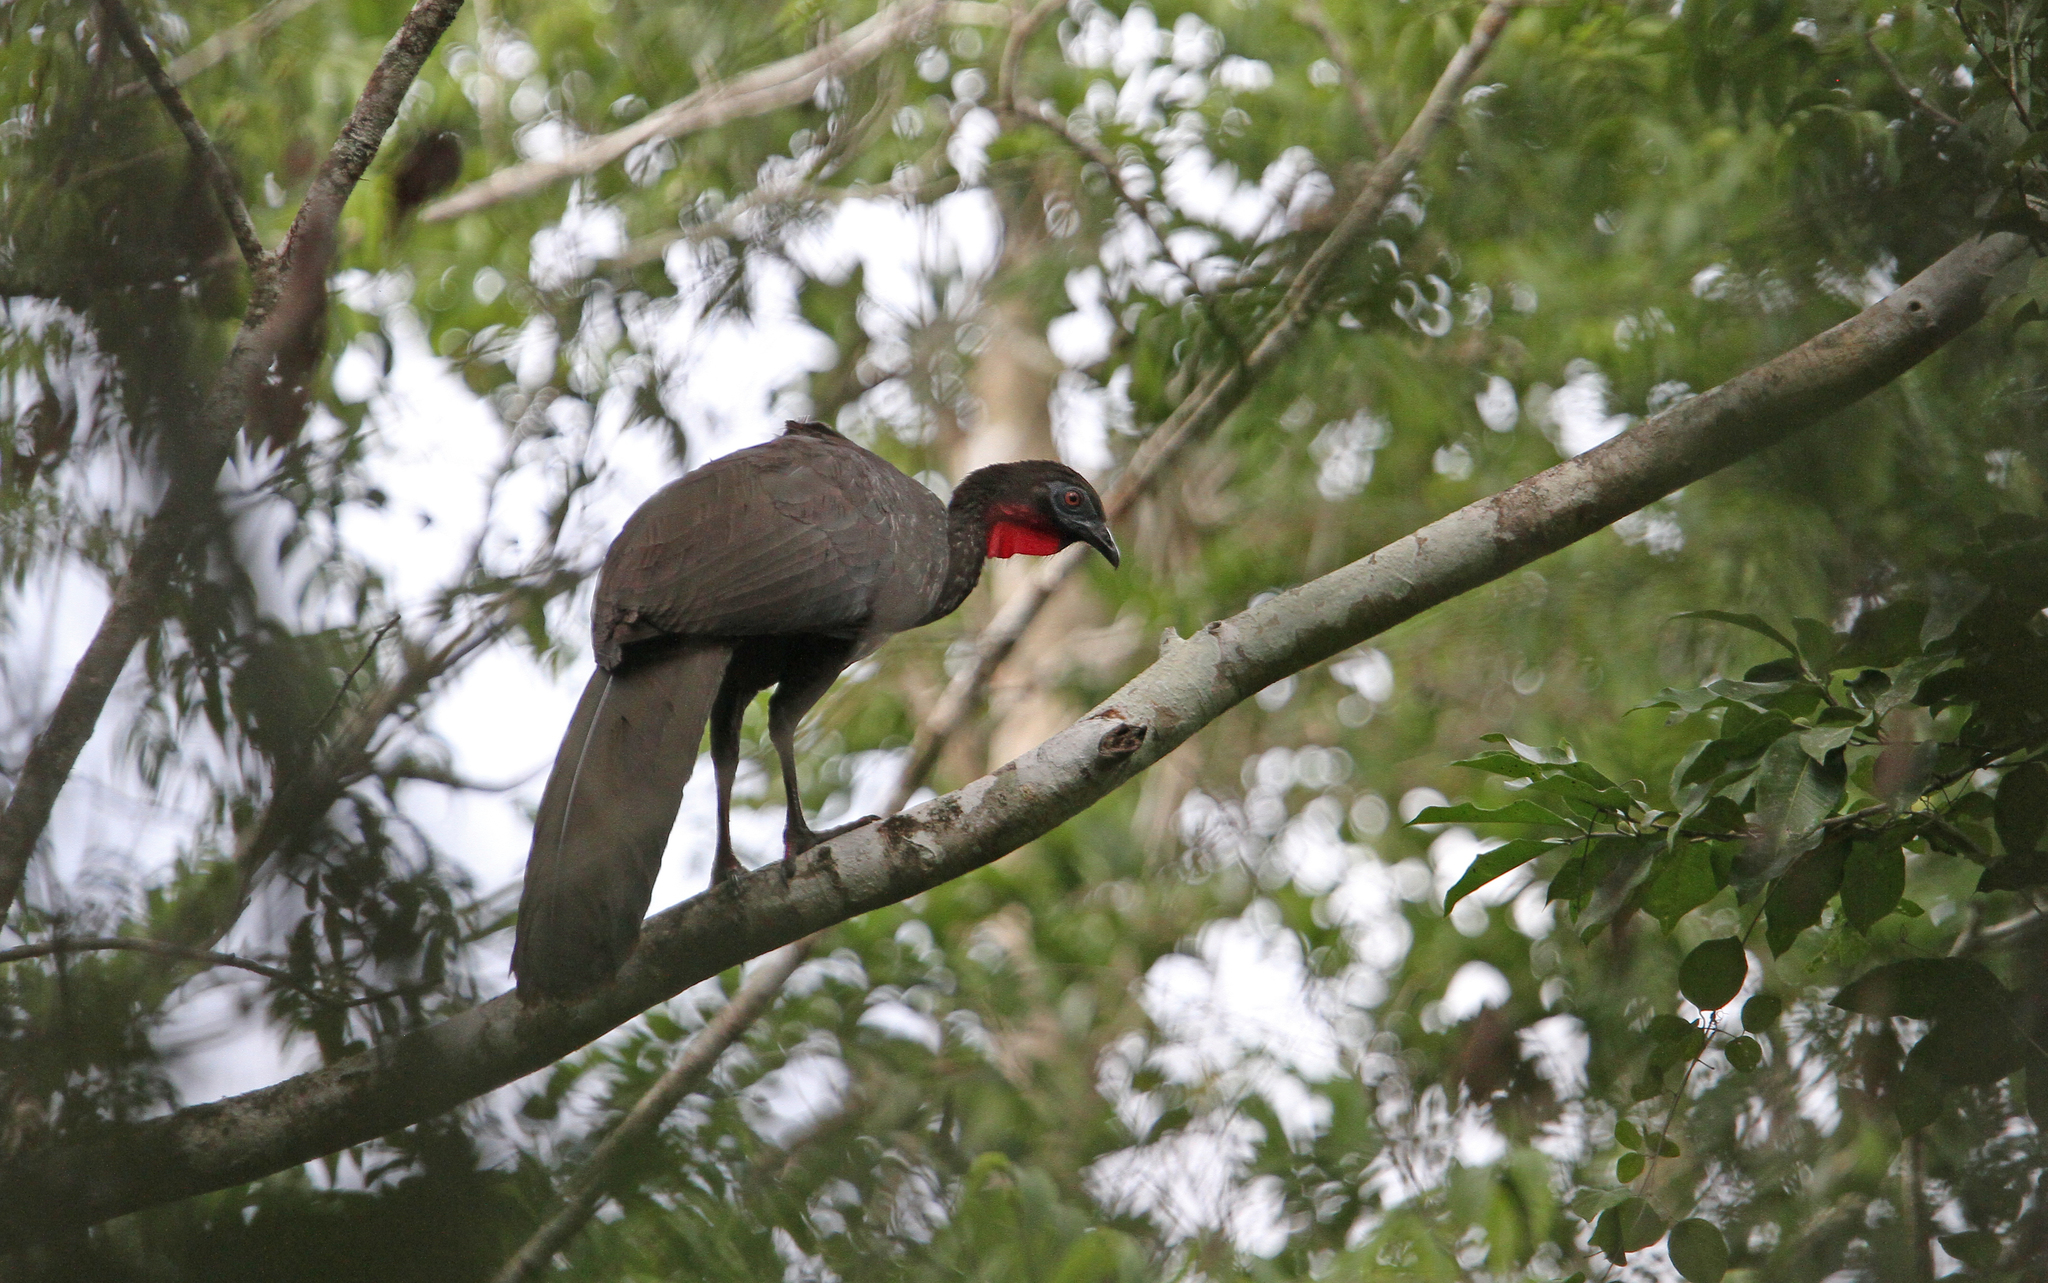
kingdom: Animalia
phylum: Chordata
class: Aves
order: Galliformes
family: Cracidae
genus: Penelope
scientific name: Penelope purpurascens
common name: Crested guan
